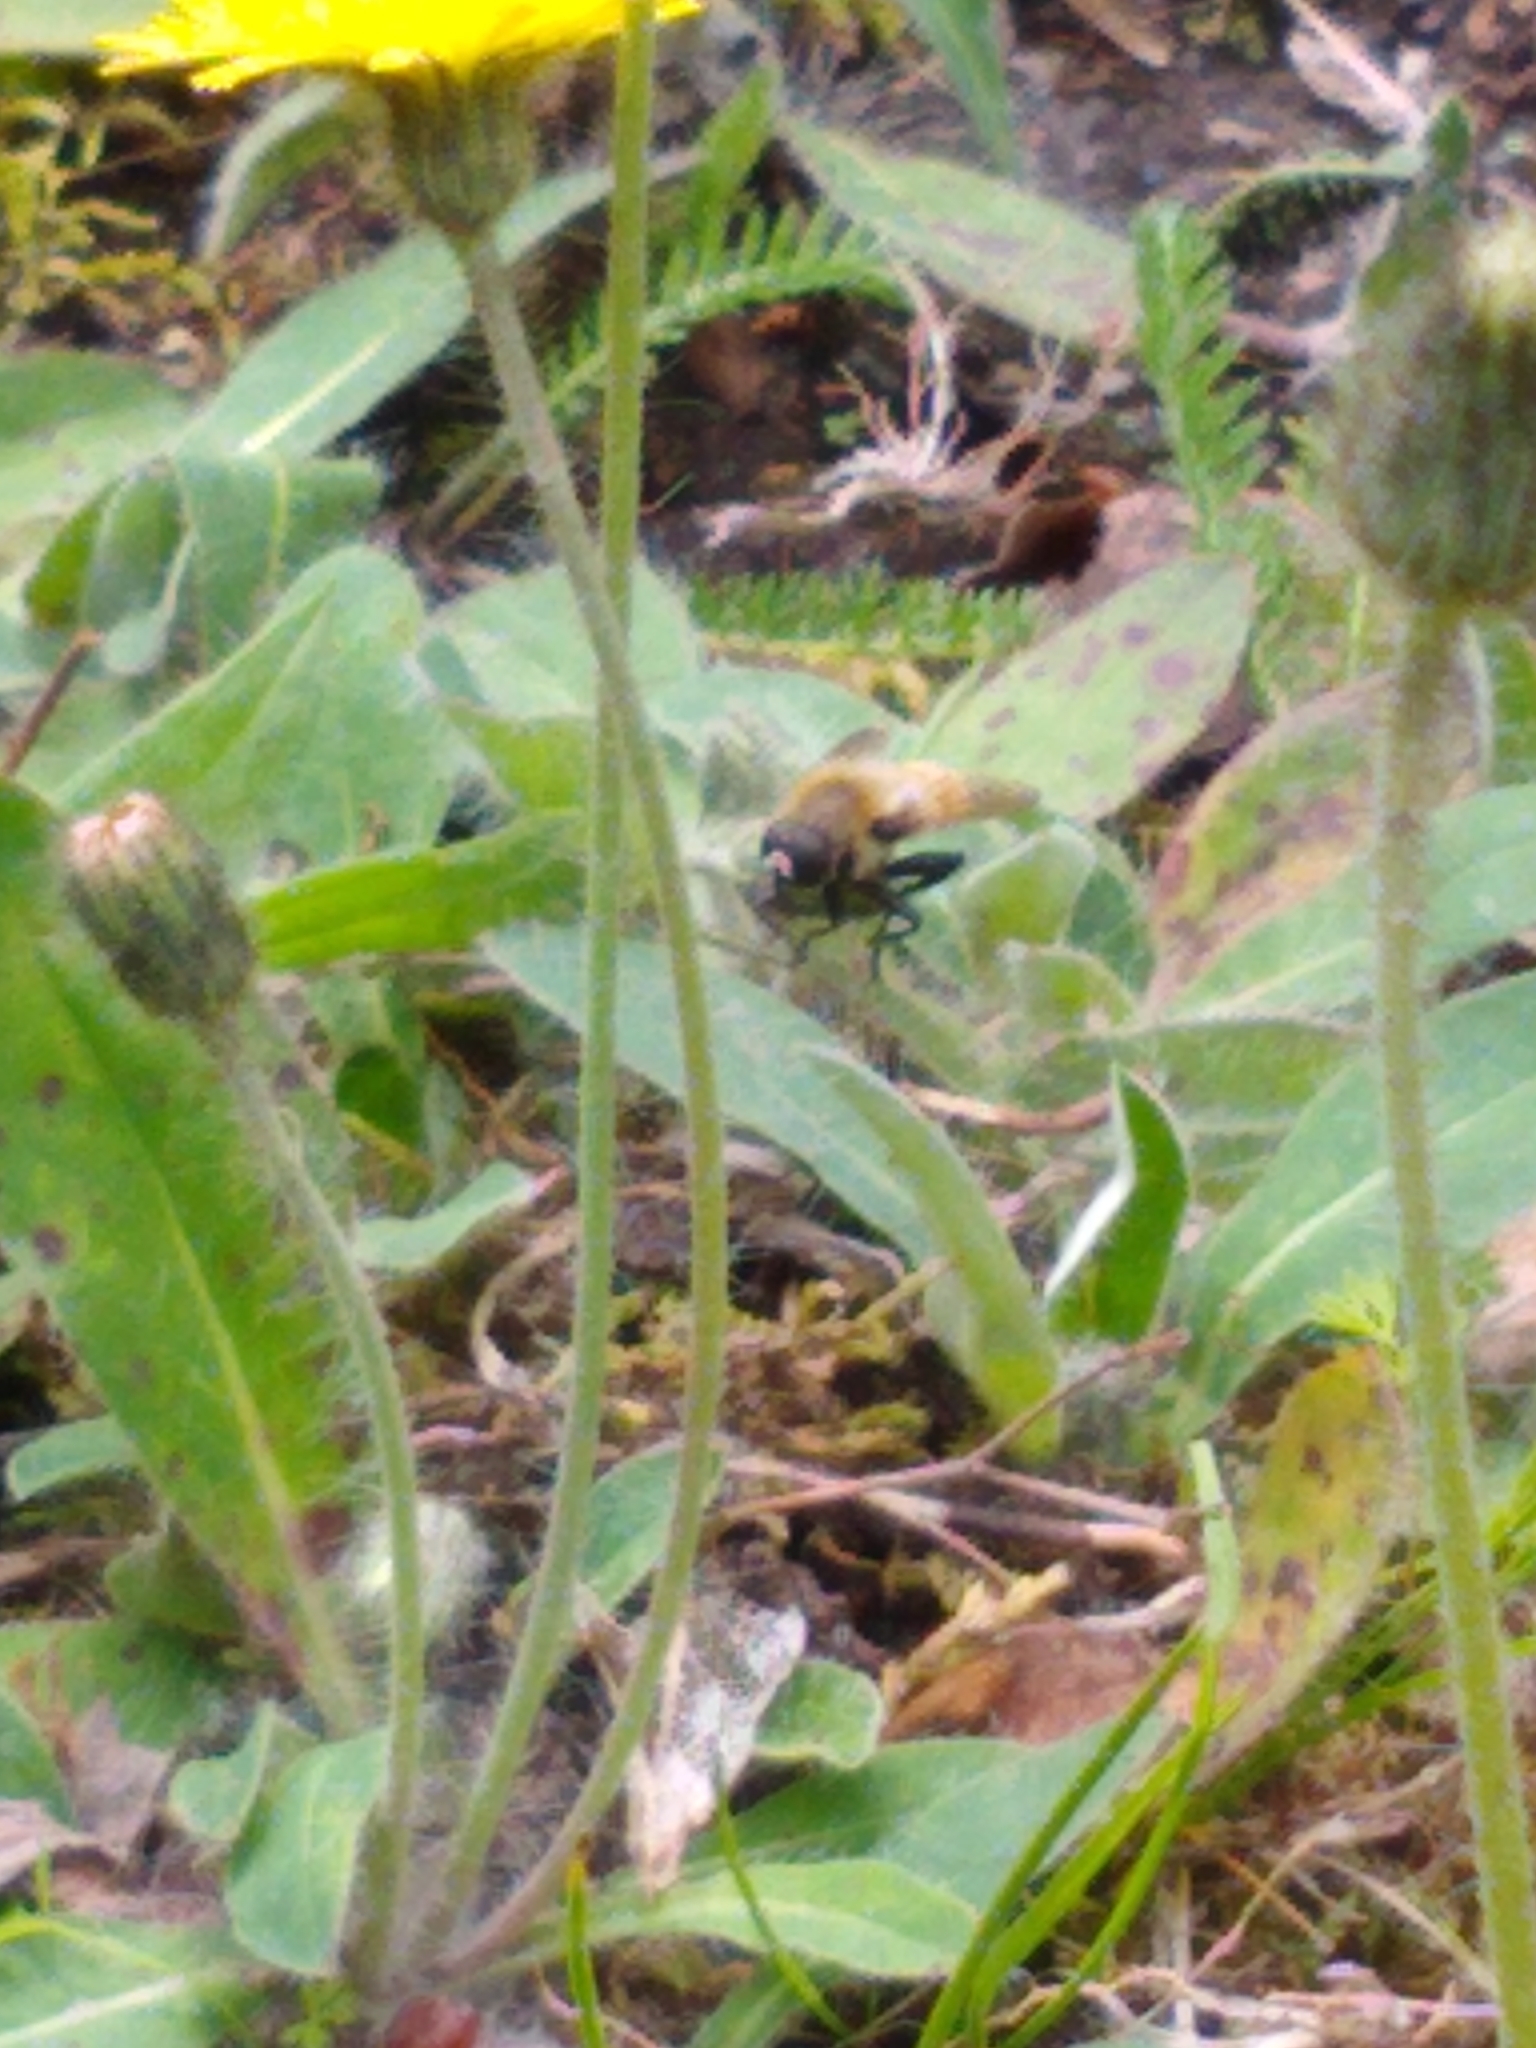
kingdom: Animalia
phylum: Arthropoda
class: Insecta
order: Diptera
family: Syrphidae
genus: Merodon
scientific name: Merodon equestris
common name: Greater bulb-fly
